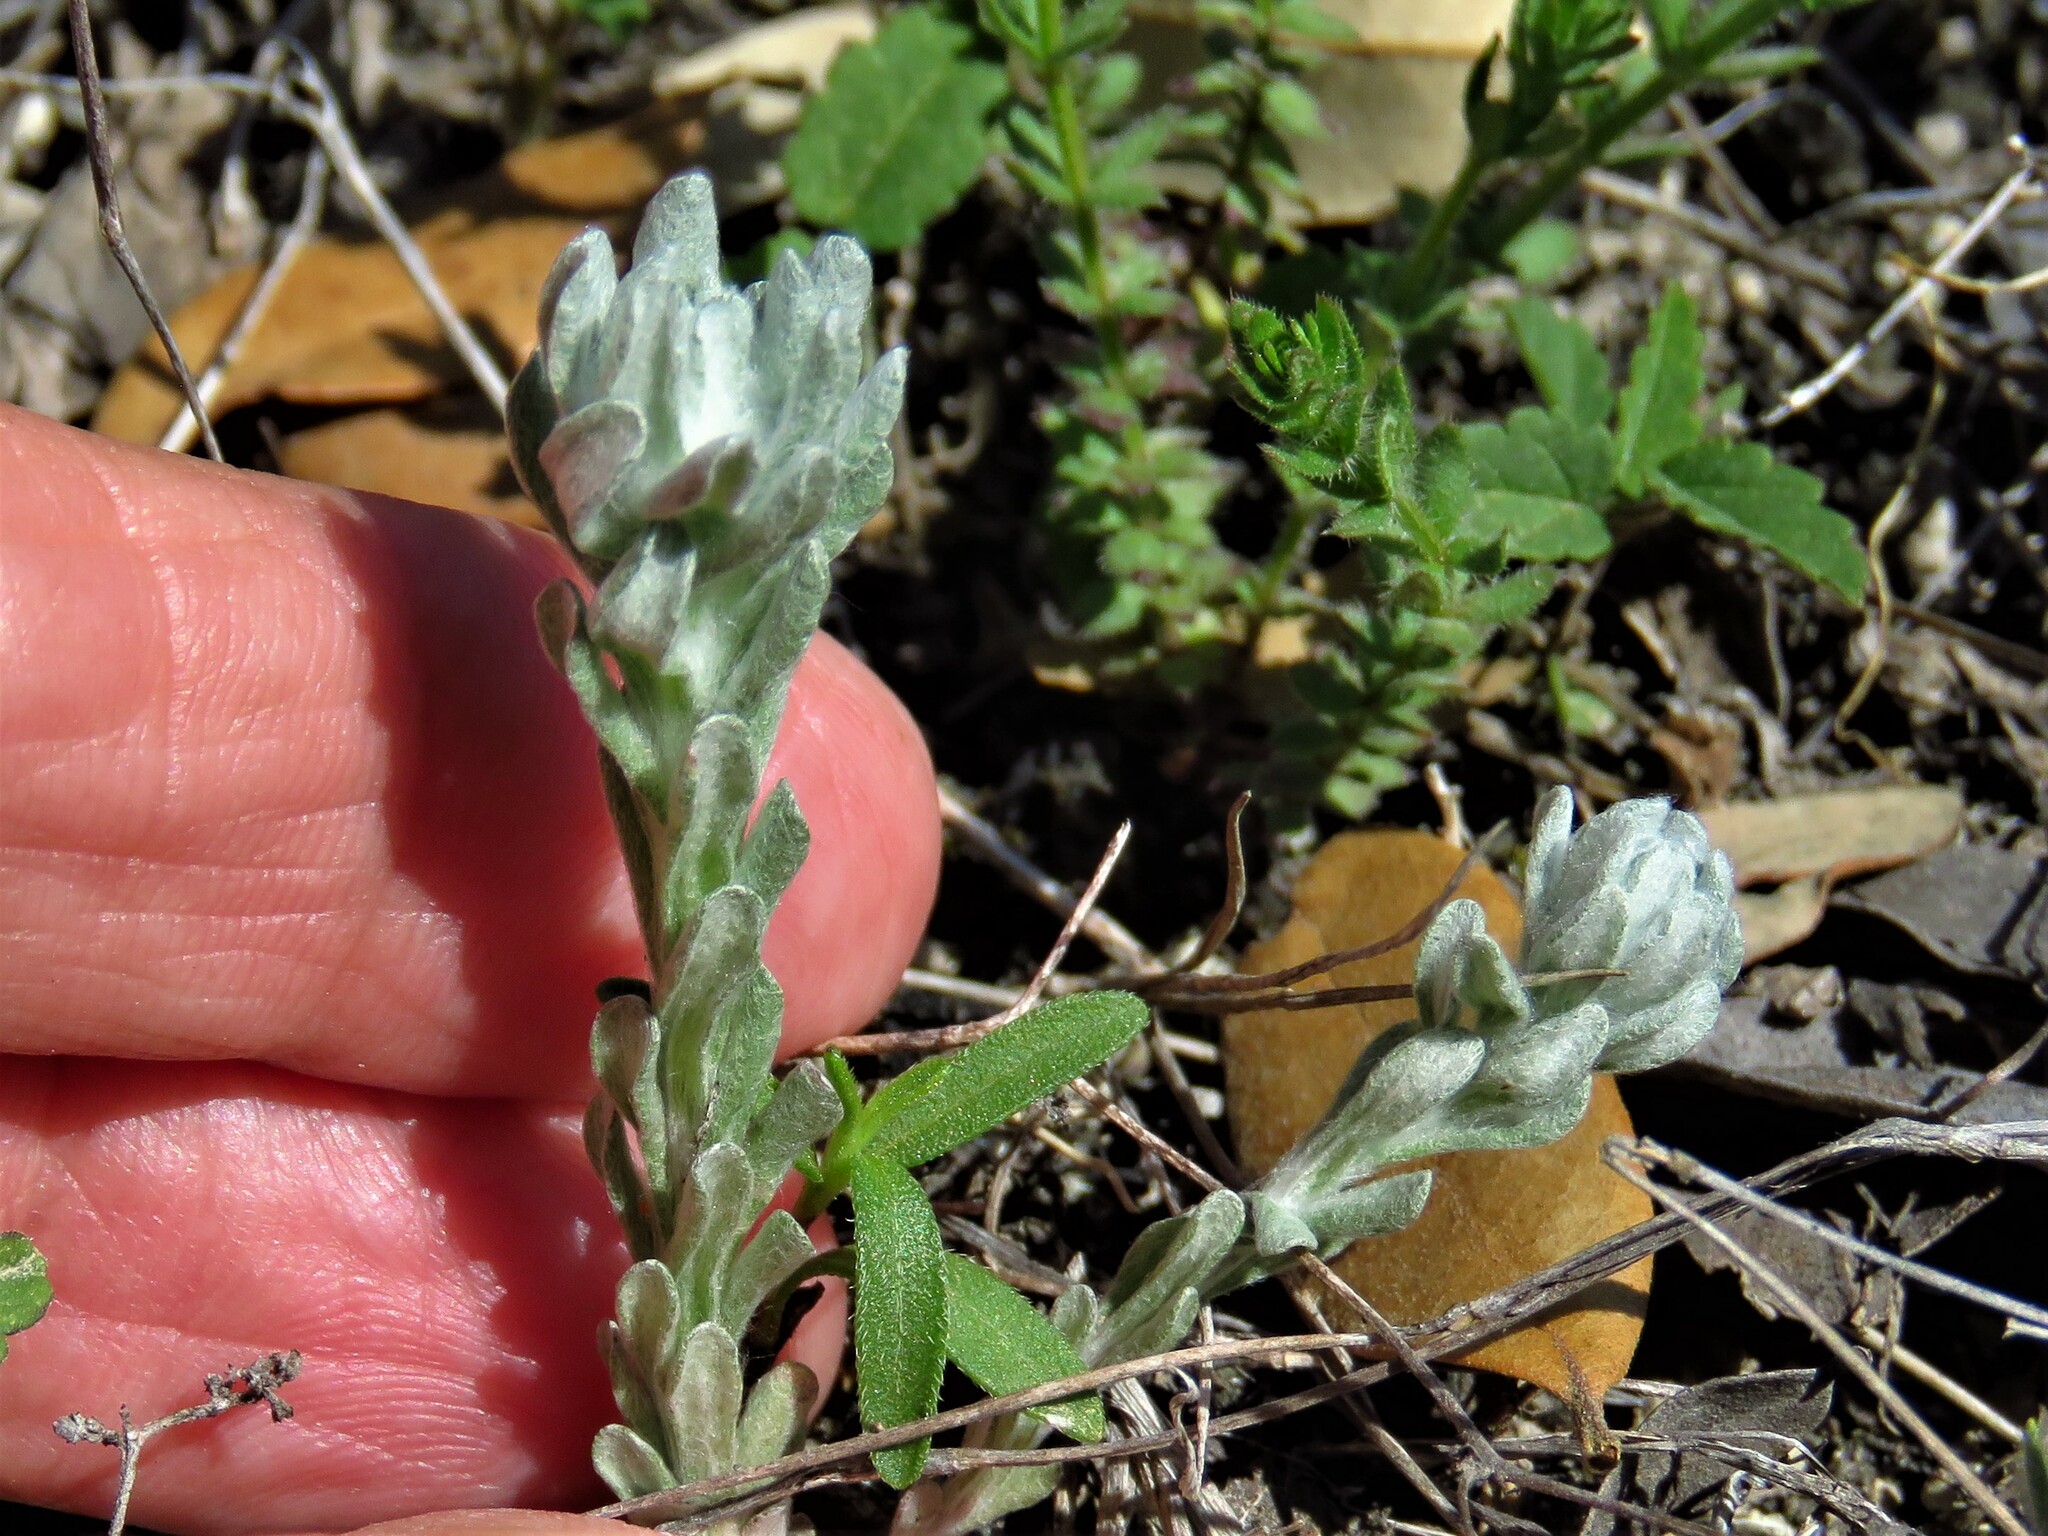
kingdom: Plantae
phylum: Tracheophyta
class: Magnoliopsida
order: Asterales
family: Asteraceae
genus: Diaperia
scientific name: Diaperia prolifera
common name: Big-head rabbit-tobacco
